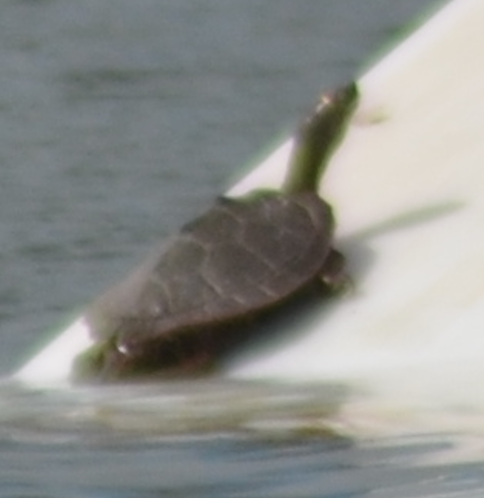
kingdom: Animalia
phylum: Chordata
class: Testudines
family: Emydidae
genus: Graptemys
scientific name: Graptemys pseudogeographica
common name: False map turtle
